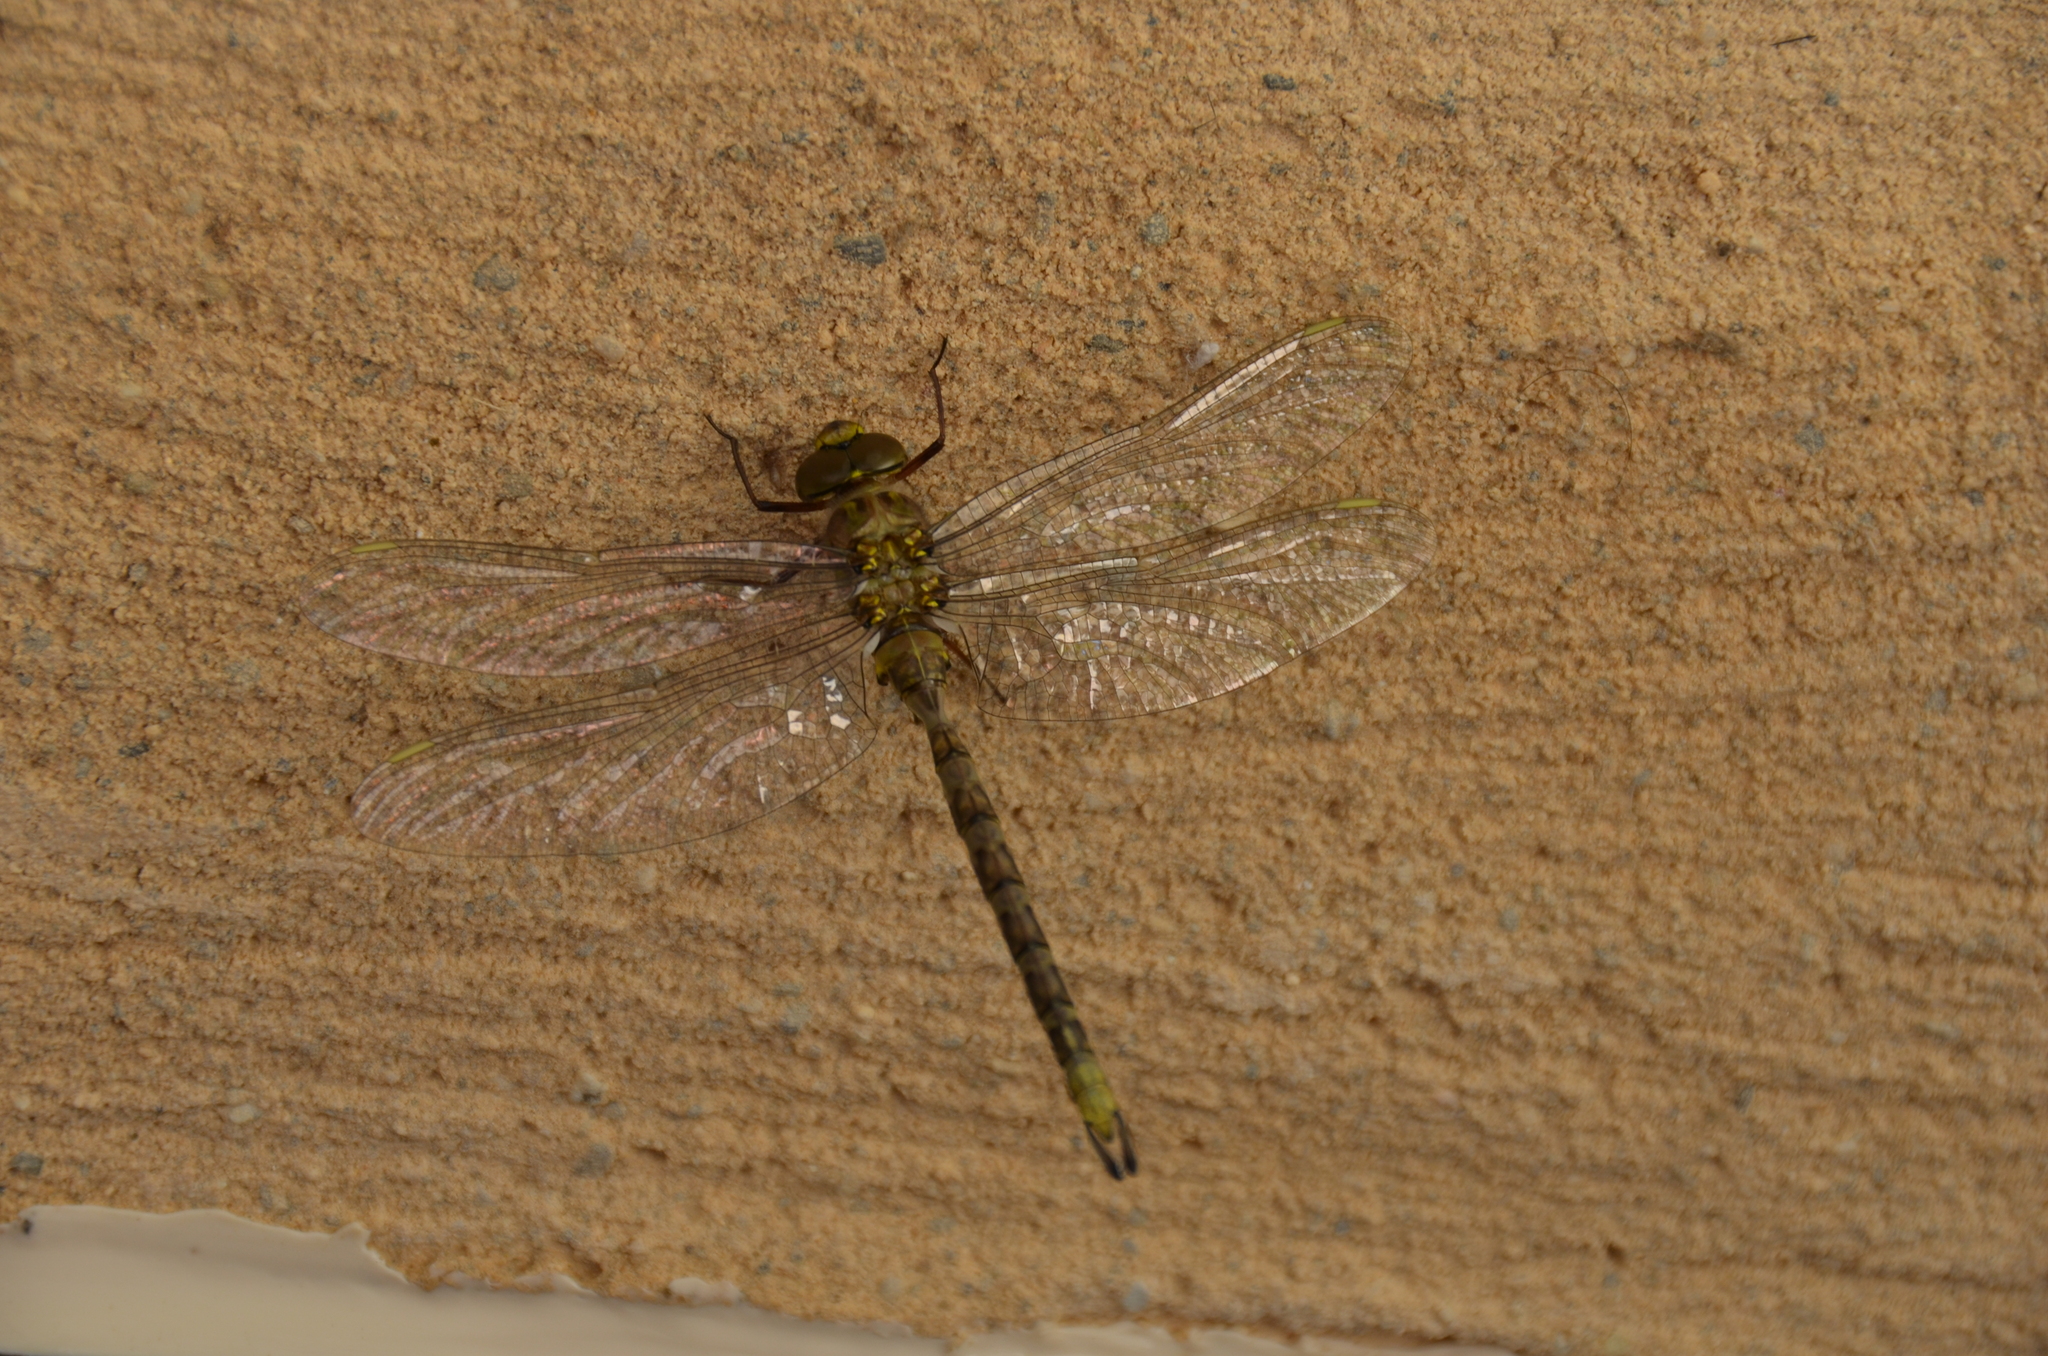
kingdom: Animalia
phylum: Arthropoda
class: Insecta
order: Odonata
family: Aeshnidae
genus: Boyeria
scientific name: Boyeria irene
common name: Western spectre
